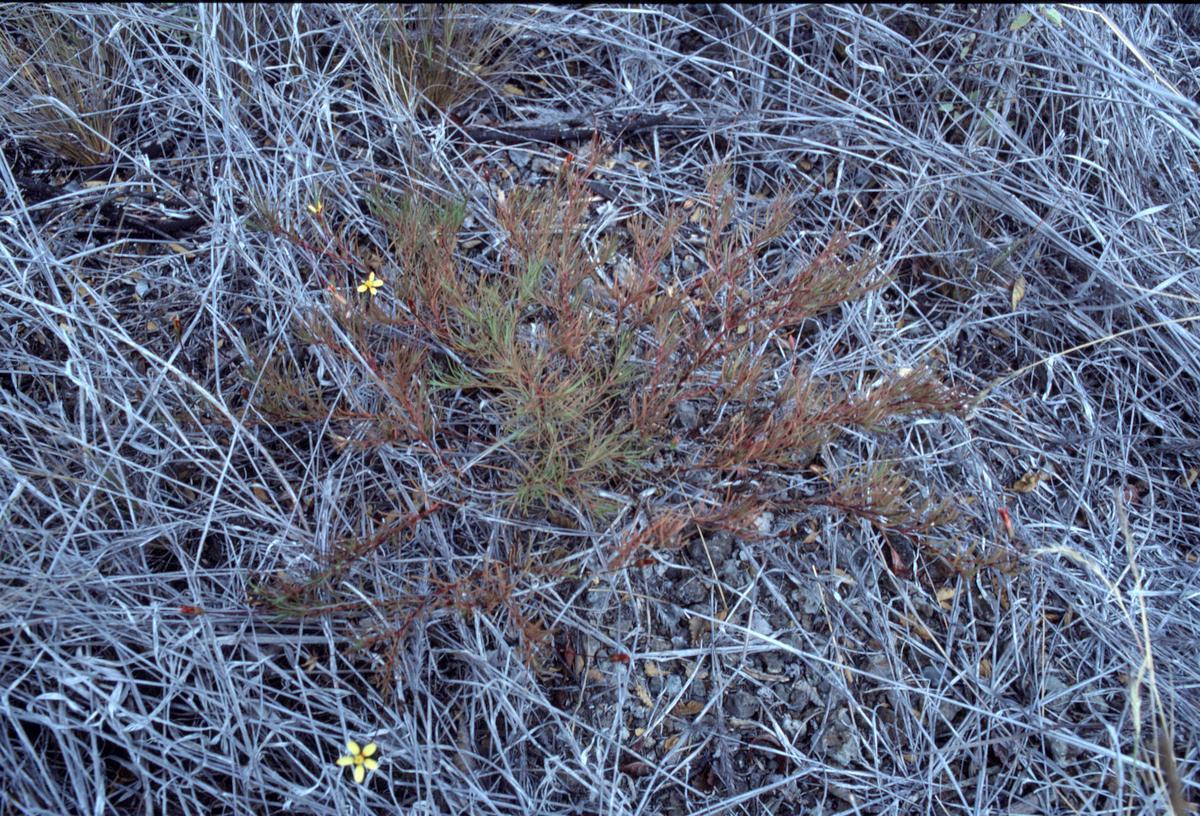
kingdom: Plantae
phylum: Tracheophyta
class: Magnoliopsida
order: Asterales
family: Asteraceae
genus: Pectis
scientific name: Pectis tenuifolia
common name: Oily pectis
